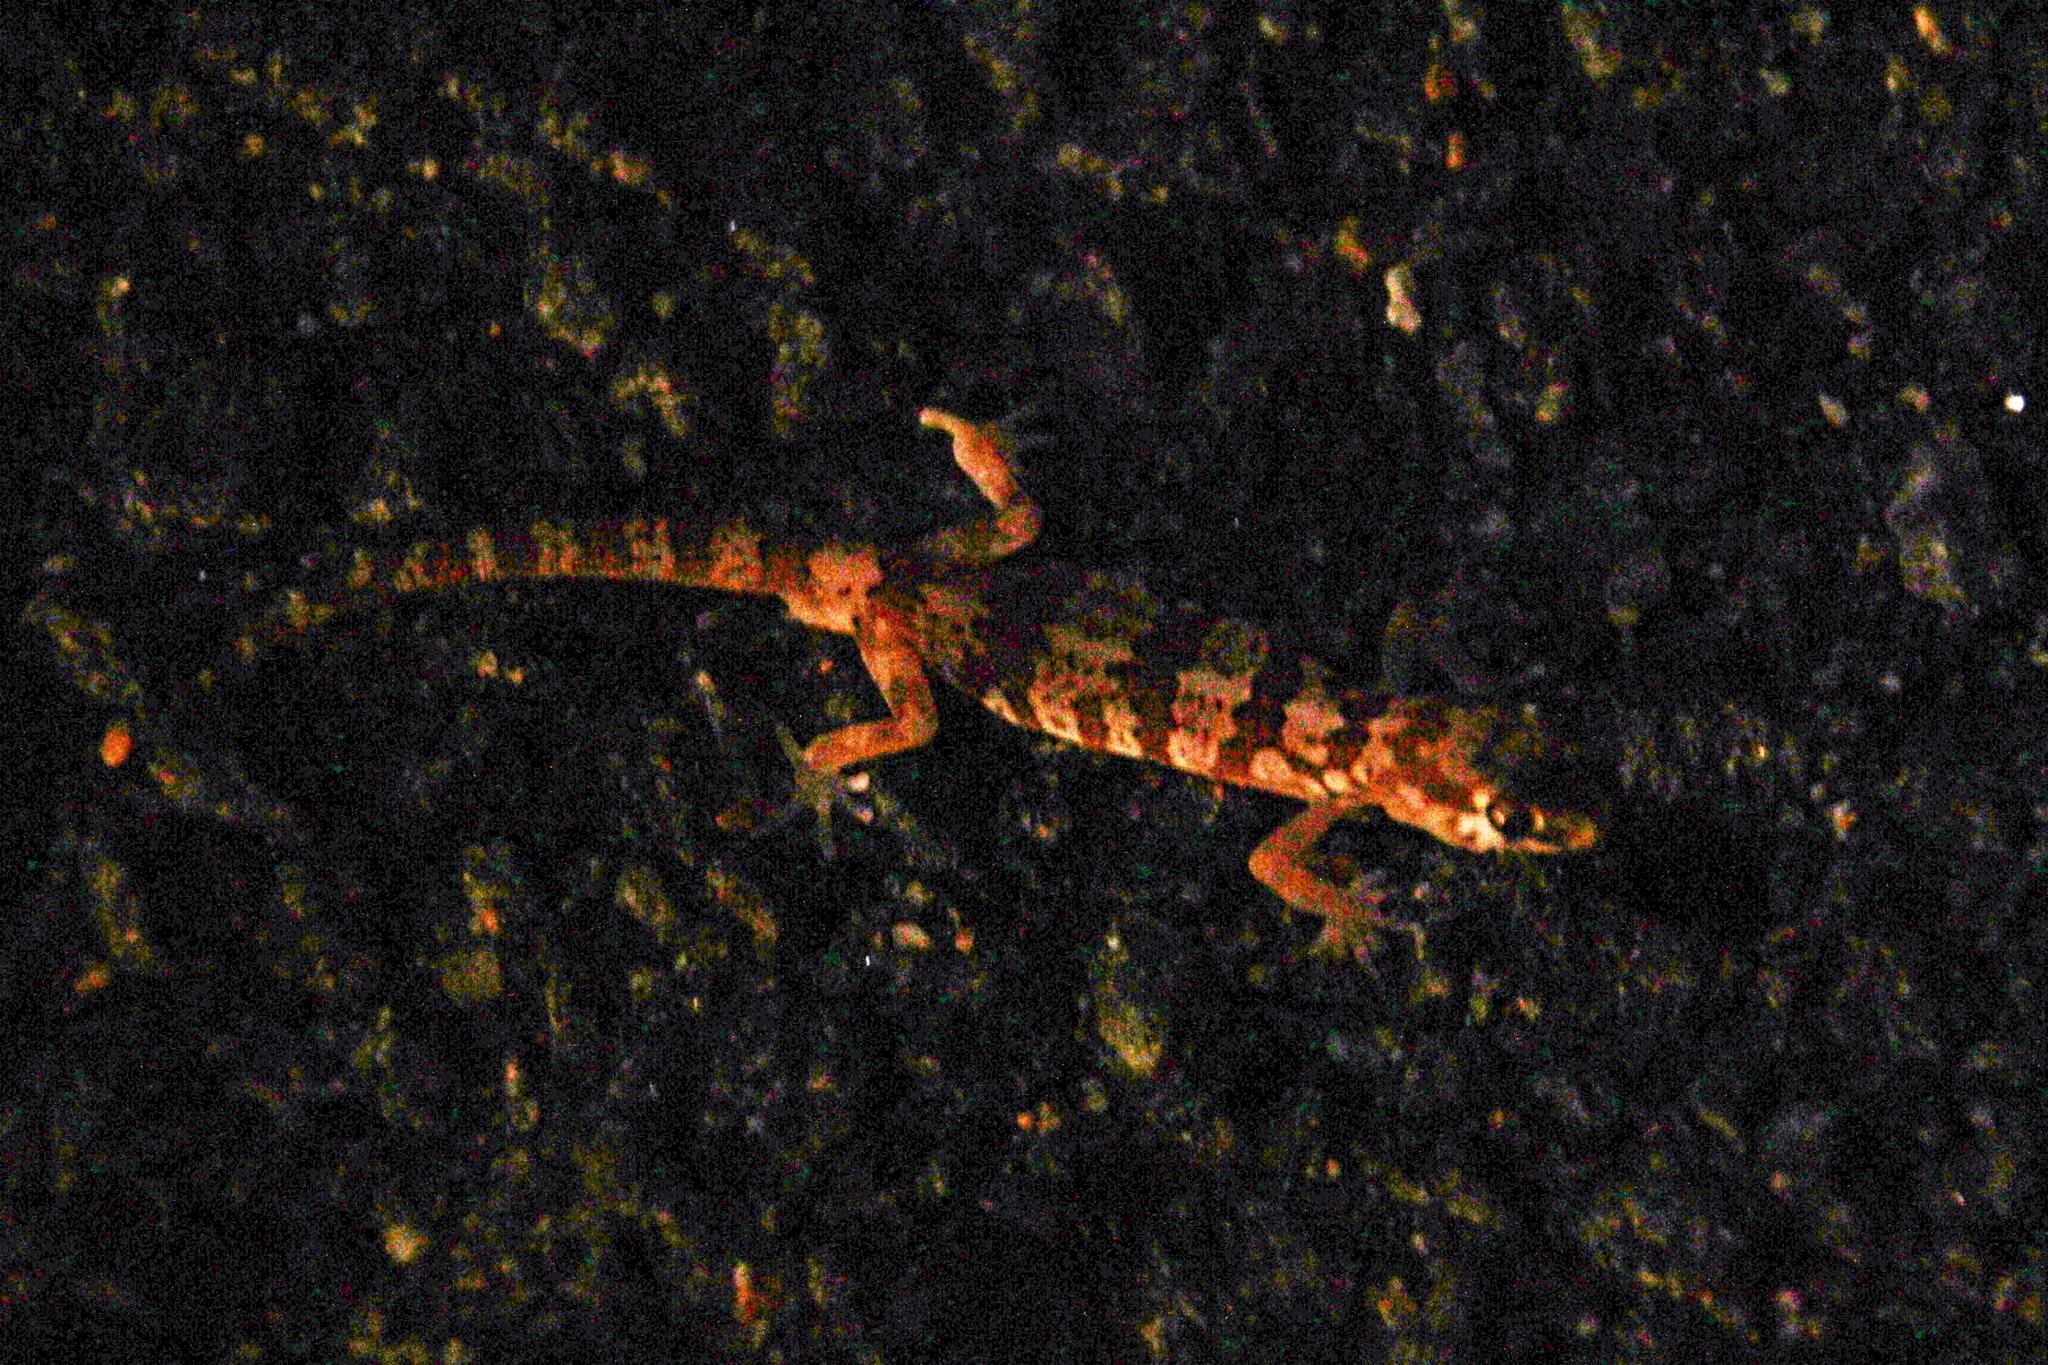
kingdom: Animalia
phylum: Chordata
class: Squamata
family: Gekkonidae
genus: Pachydactylus
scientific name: Pachydactylus latirostris
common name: Quartz gecko
